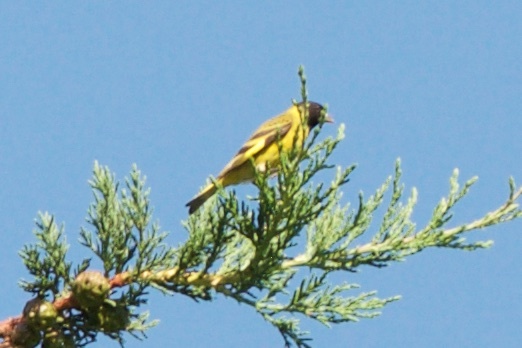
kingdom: Animalia
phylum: Chordata
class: Aves
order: Passeriformes
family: Fringillidae
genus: Spinus
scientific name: Spinus magellanicus
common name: Hooded siskin
